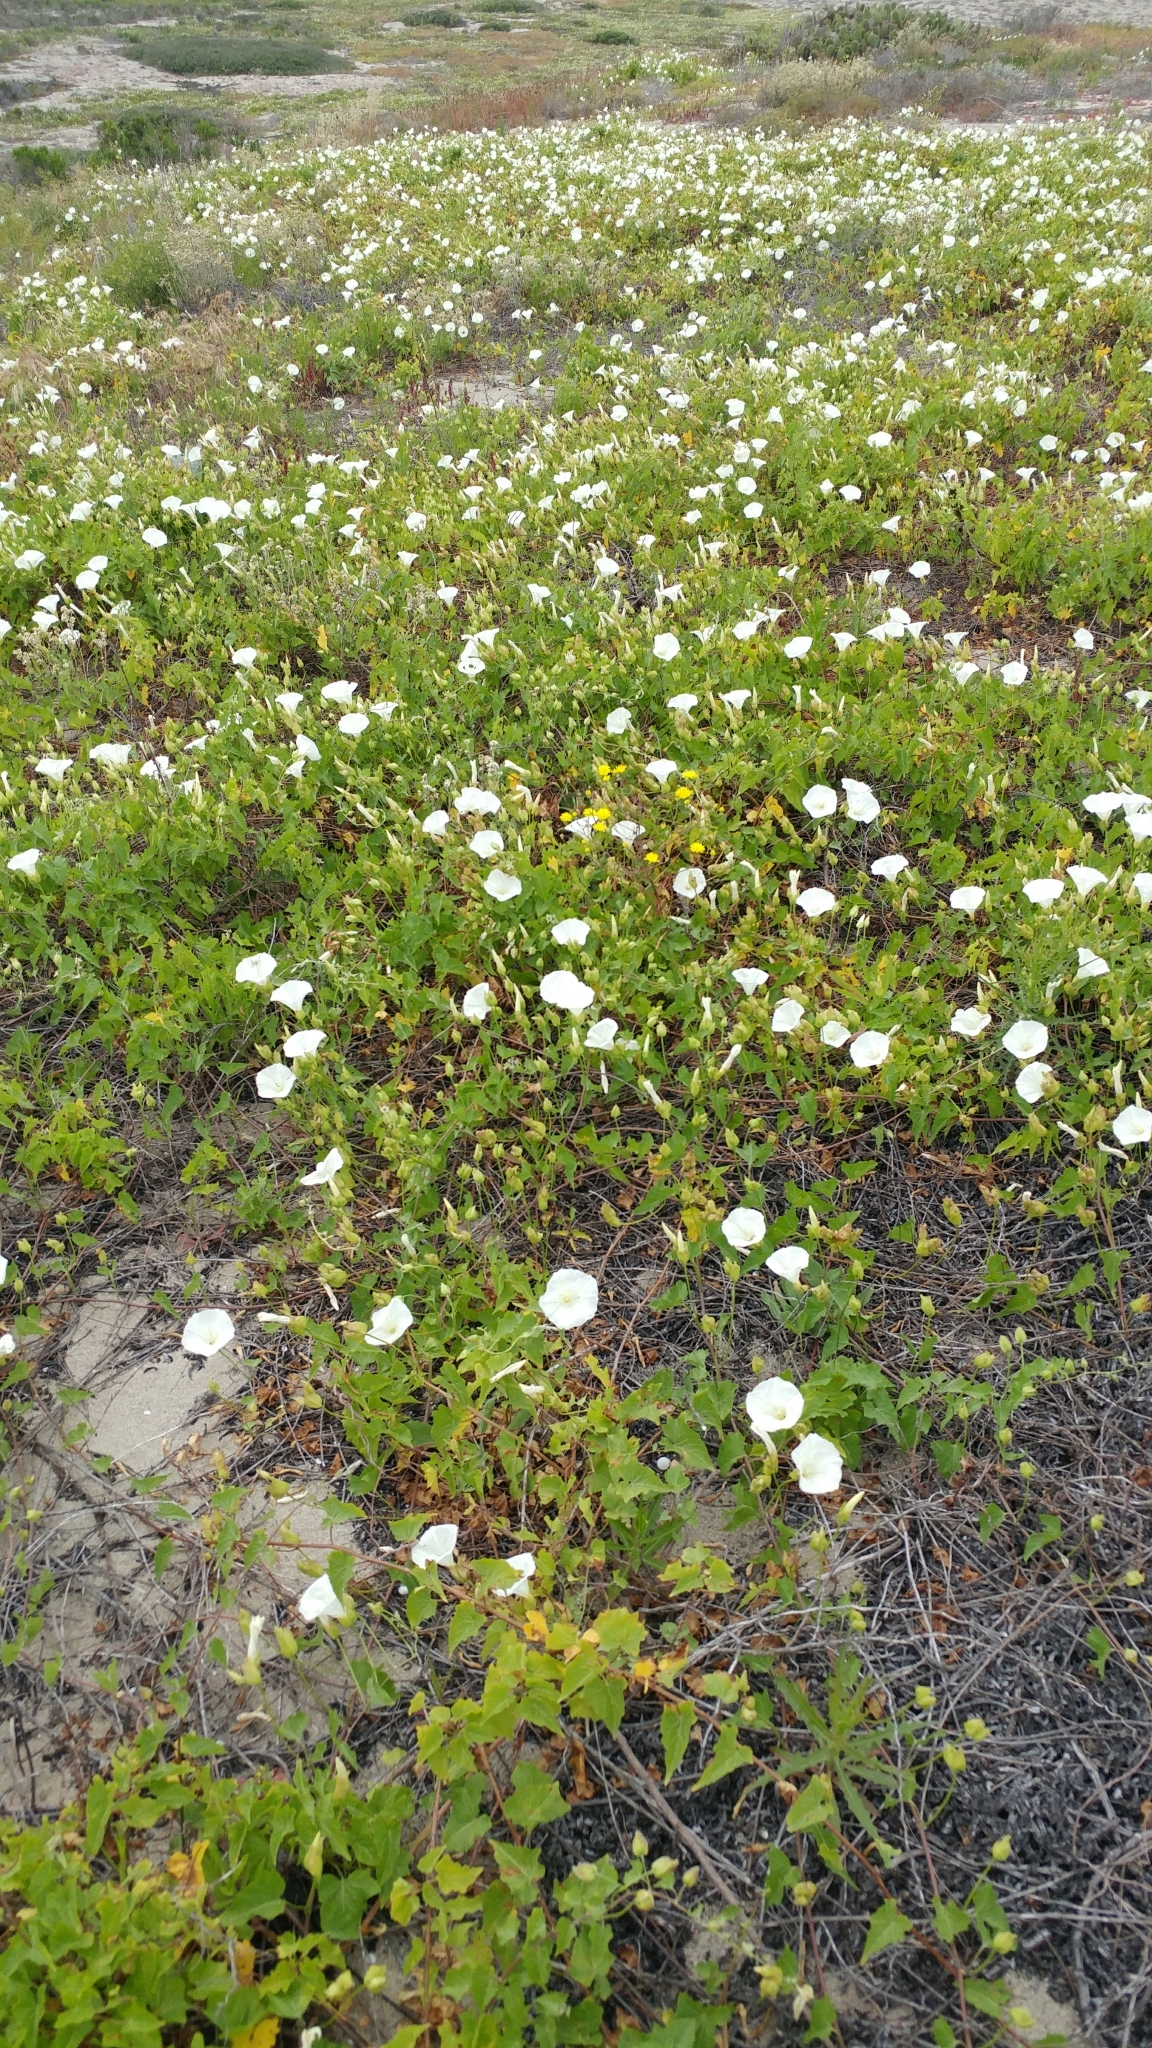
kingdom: Plantae
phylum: Tracheophyta
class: Magnoliopsida
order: Solanales
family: Convolvulaceae
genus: Calystegia
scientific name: Calystegia macrostegia
